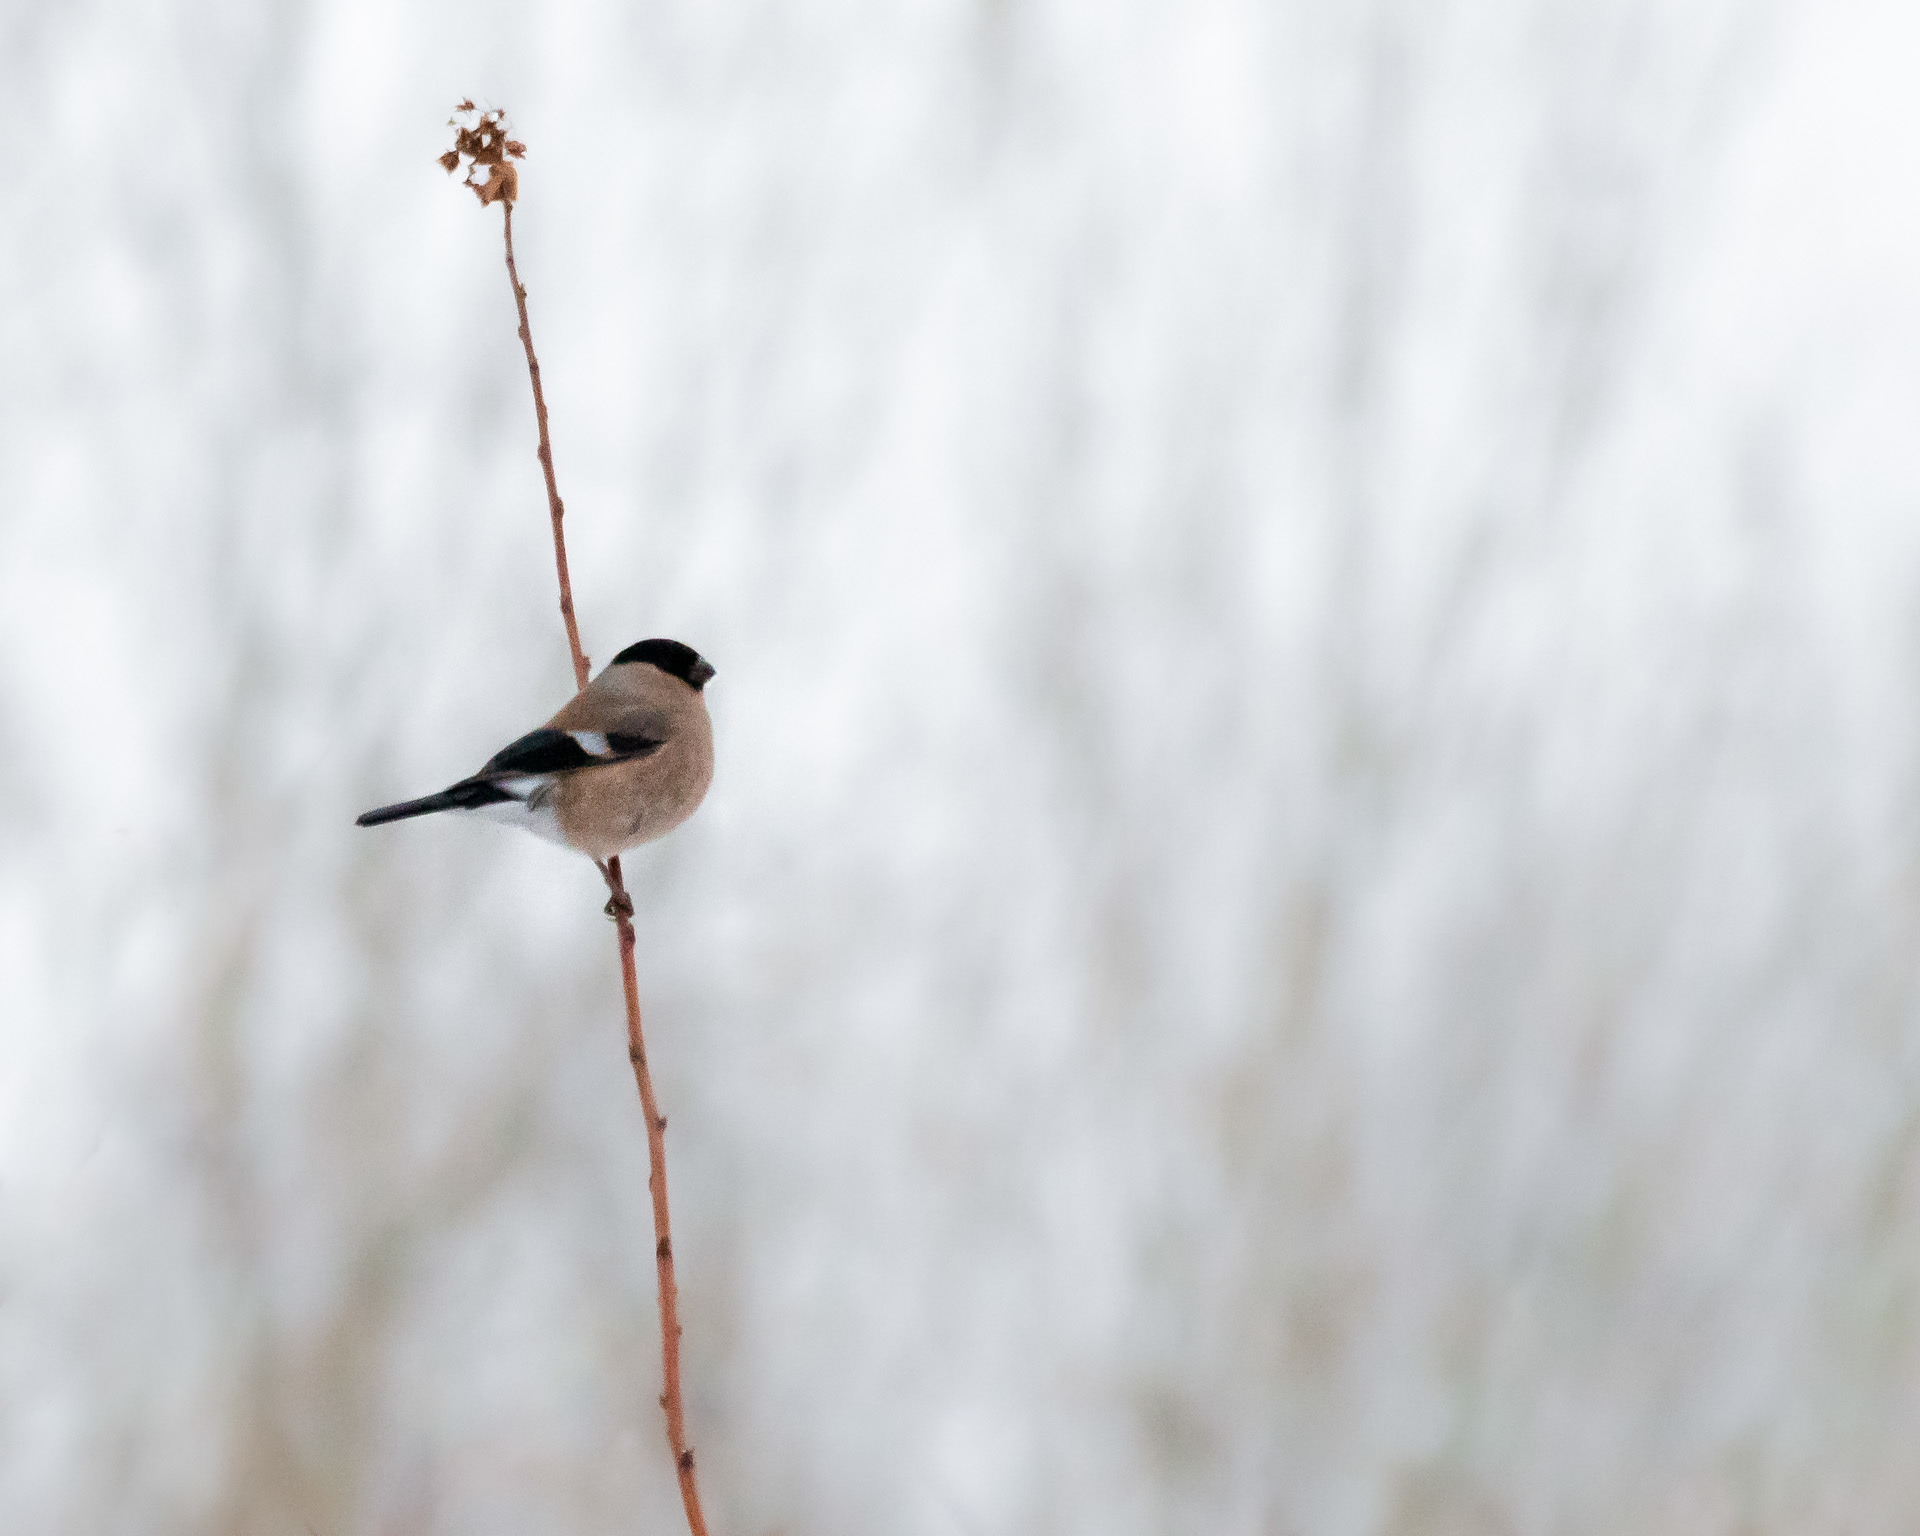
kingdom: Animalia
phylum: Chordata
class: Aves
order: Passeriformes
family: Fringillidae
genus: Pyrrhula
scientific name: Pyrrhula pyrrhula
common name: Eurasian bullfinch
